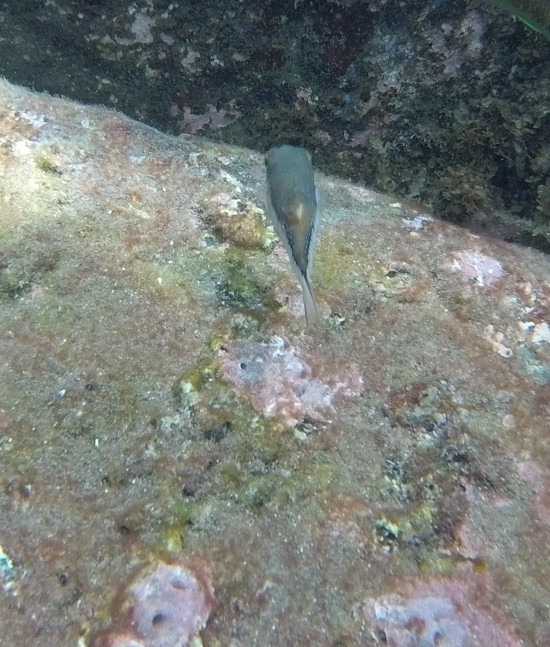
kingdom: Animalia
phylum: Chordata
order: Tetraodontiformes
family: Tetraodontidae
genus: Canthigaster
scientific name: Canthigaster capistrata
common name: Macaronesian sharpnose-puffer
